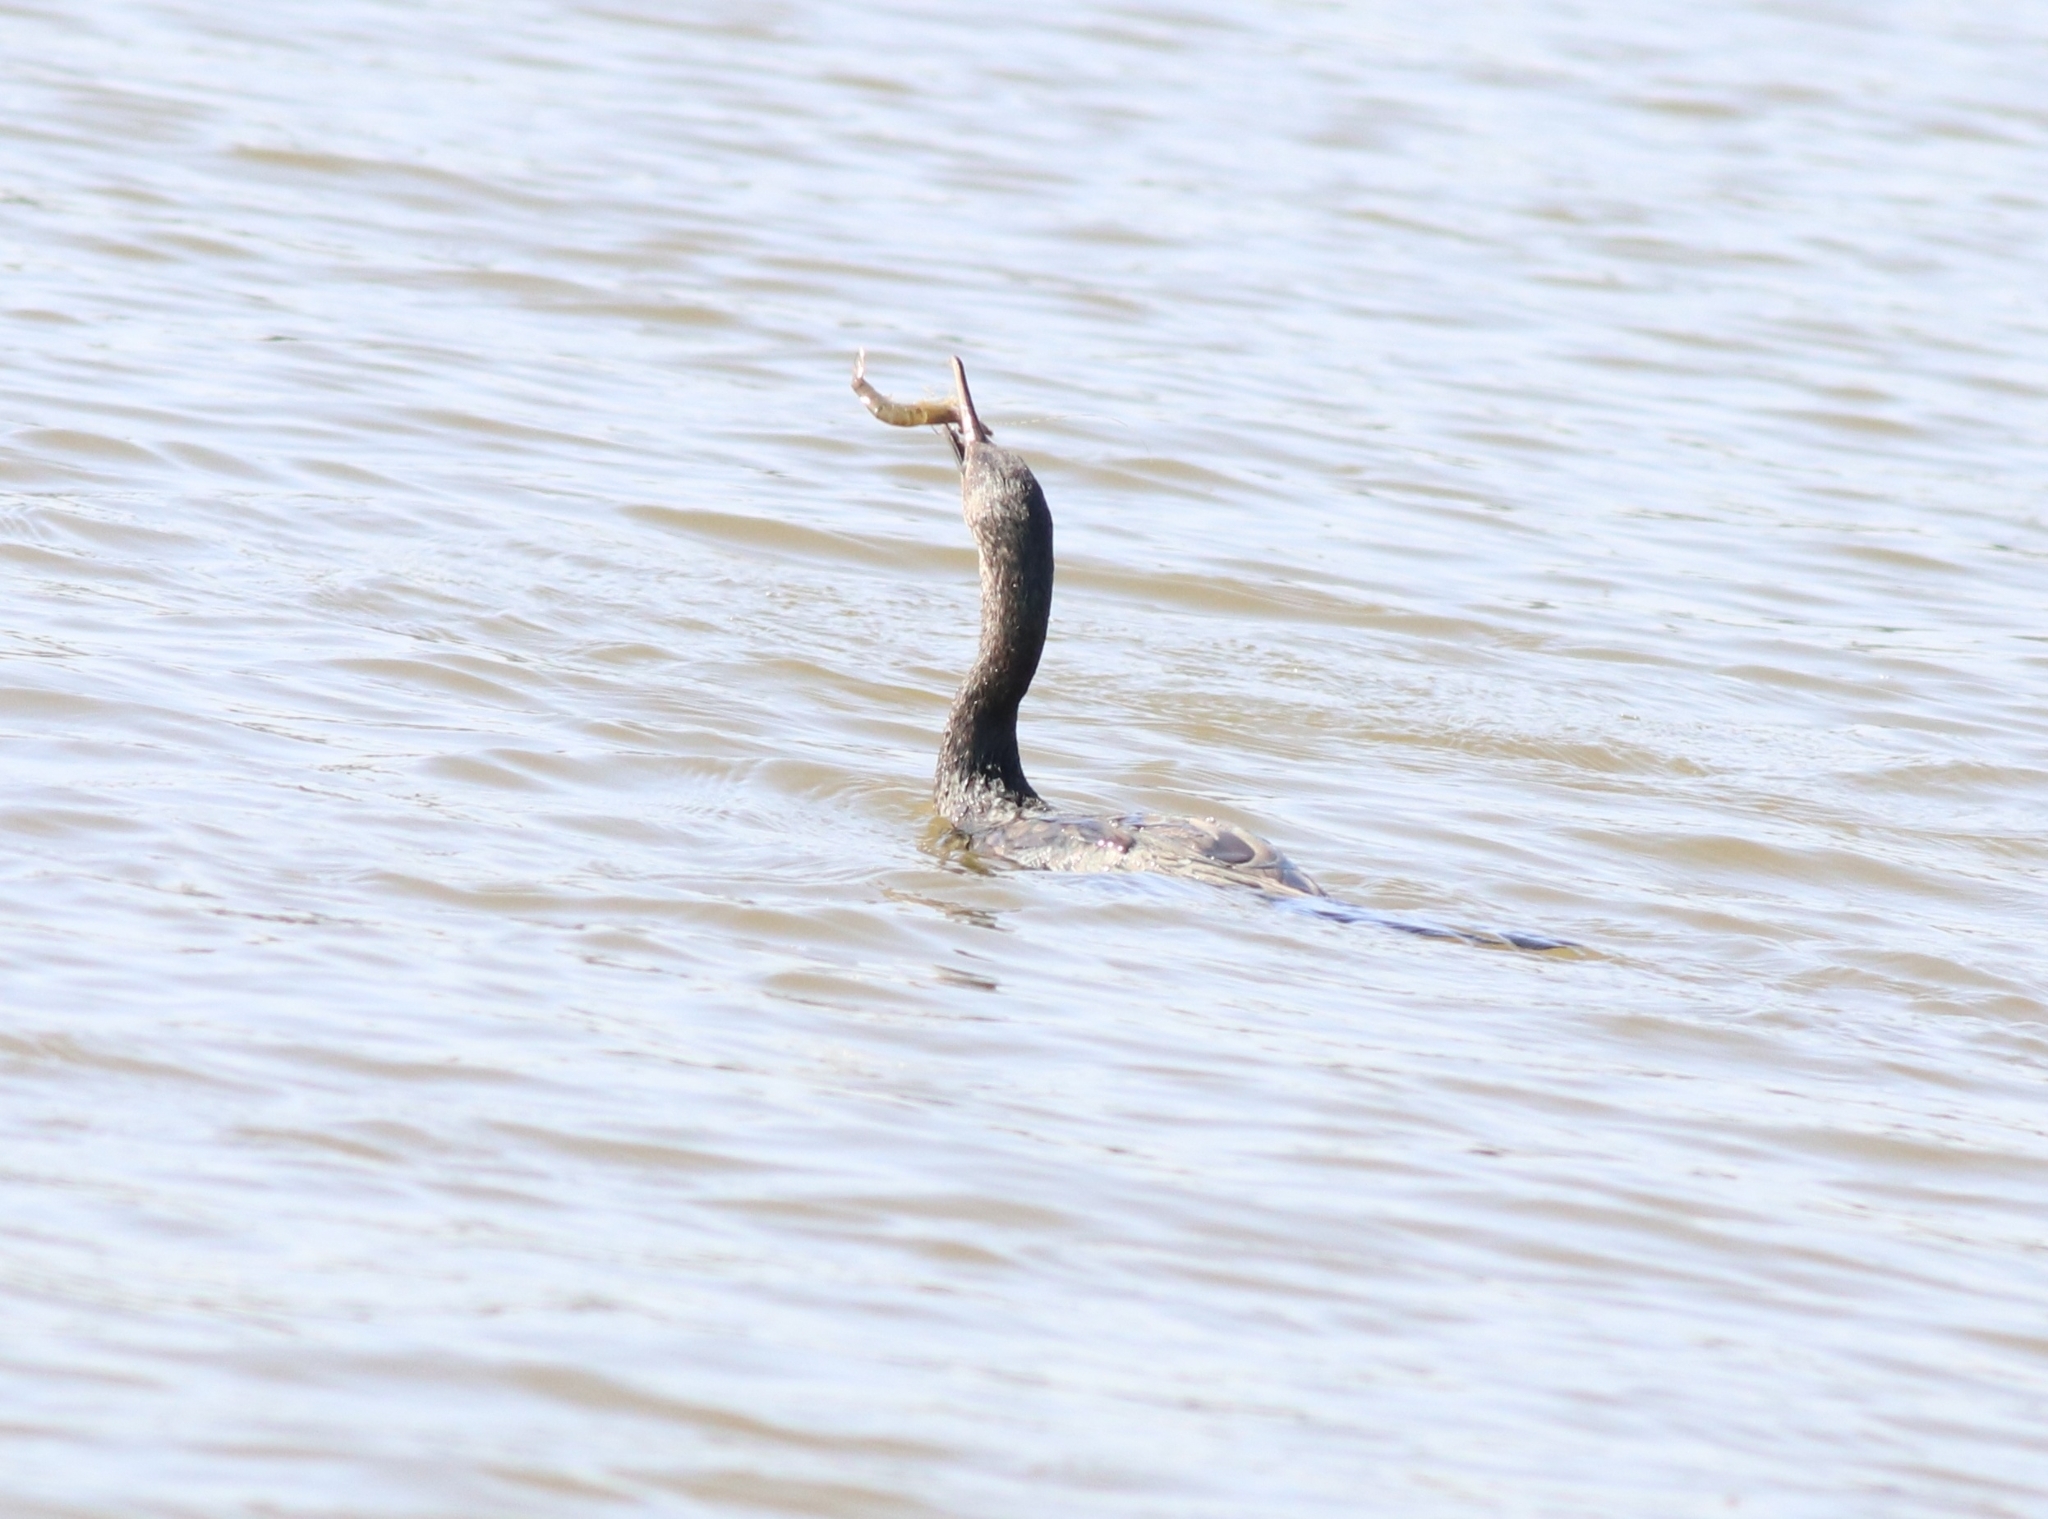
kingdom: Animalia
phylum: Chordata
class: Aves
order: Suliformes
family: Phalacrocoracidae
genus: Phalacrocorax
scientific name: Phalacrocorax fuscicollis
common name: Indian cormorant
